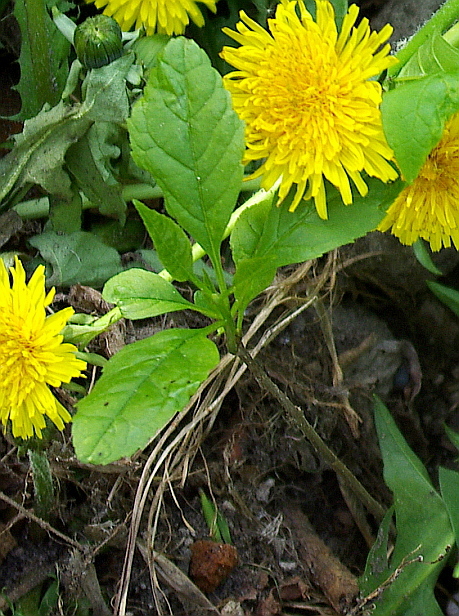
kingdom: Plantae
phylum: Tracheophyta
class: Magnoliopsida
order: Lamiales
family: Oleaceae
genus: Fraxinus
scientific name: Fraxinus pennsylvanica
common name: Green ash
